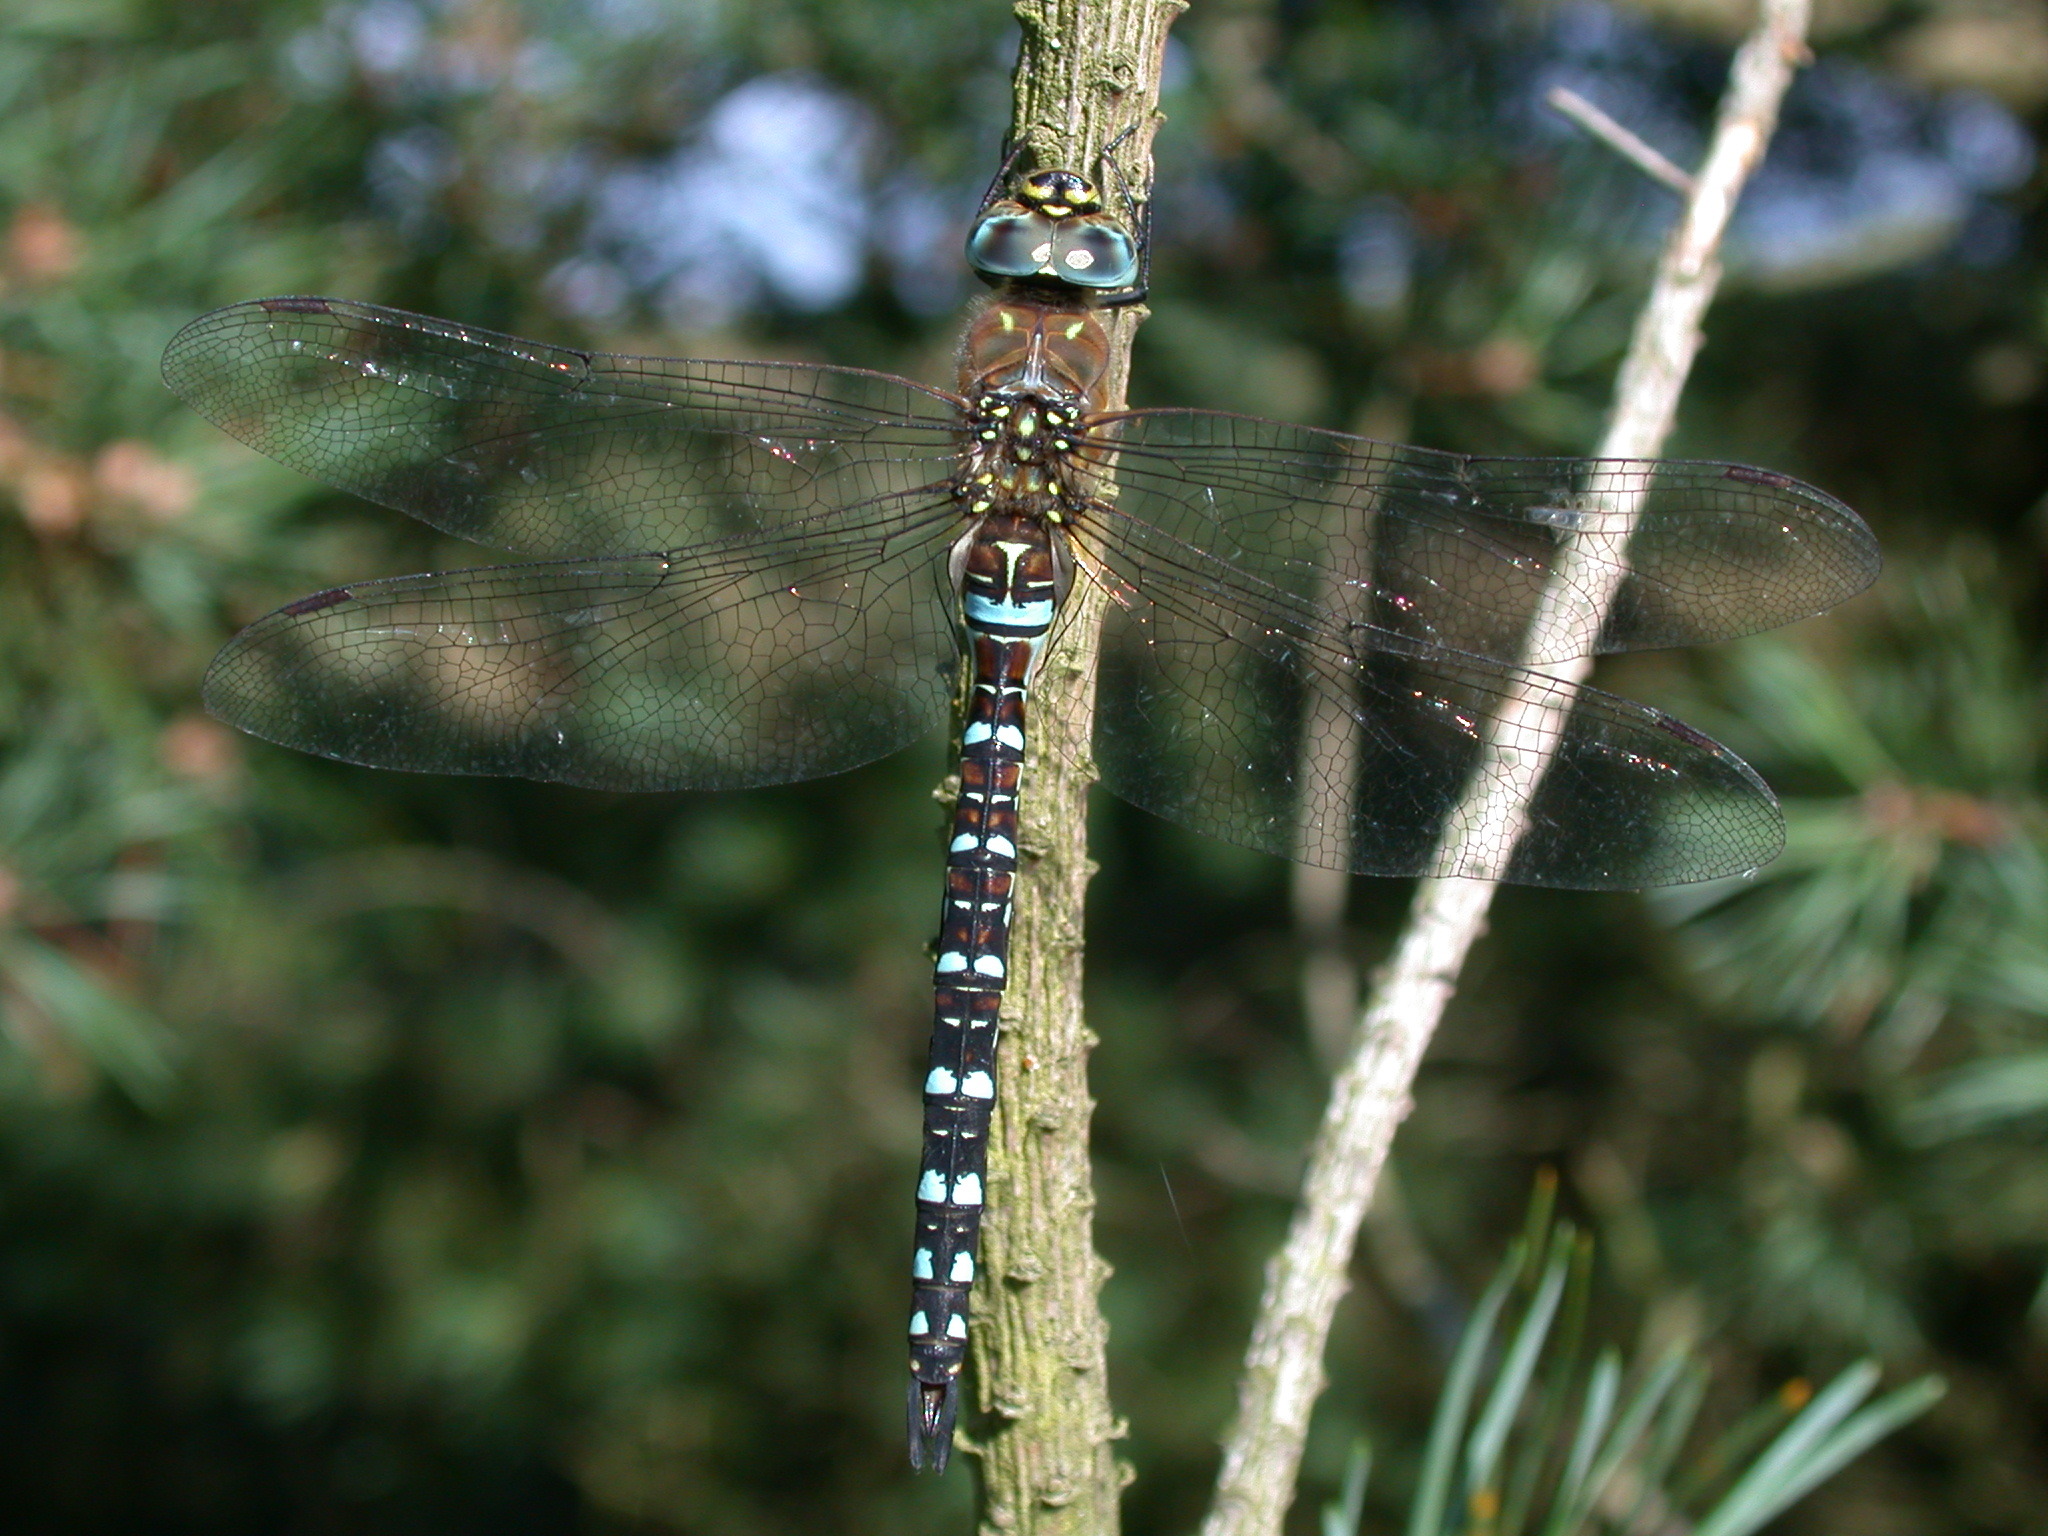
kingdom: Animalia
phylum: Arthropoda
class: Insecta
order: Odonata
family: Aeshnidae
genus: Aeshna
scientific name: Aeshna mixta
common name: Migrant hawker
